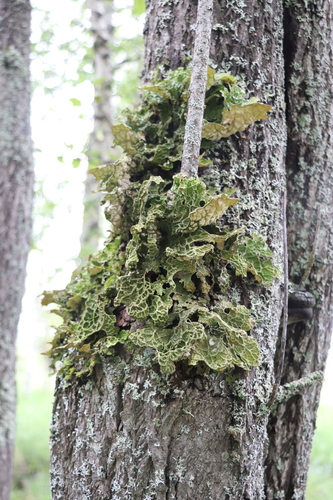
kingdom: Fungi
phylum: Ascomycota
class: Lecanoromycetes
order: Peltigerales
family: Lobariaceae
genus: Lobaria
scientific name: Lobaria pulmonaria
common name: Lungwort
